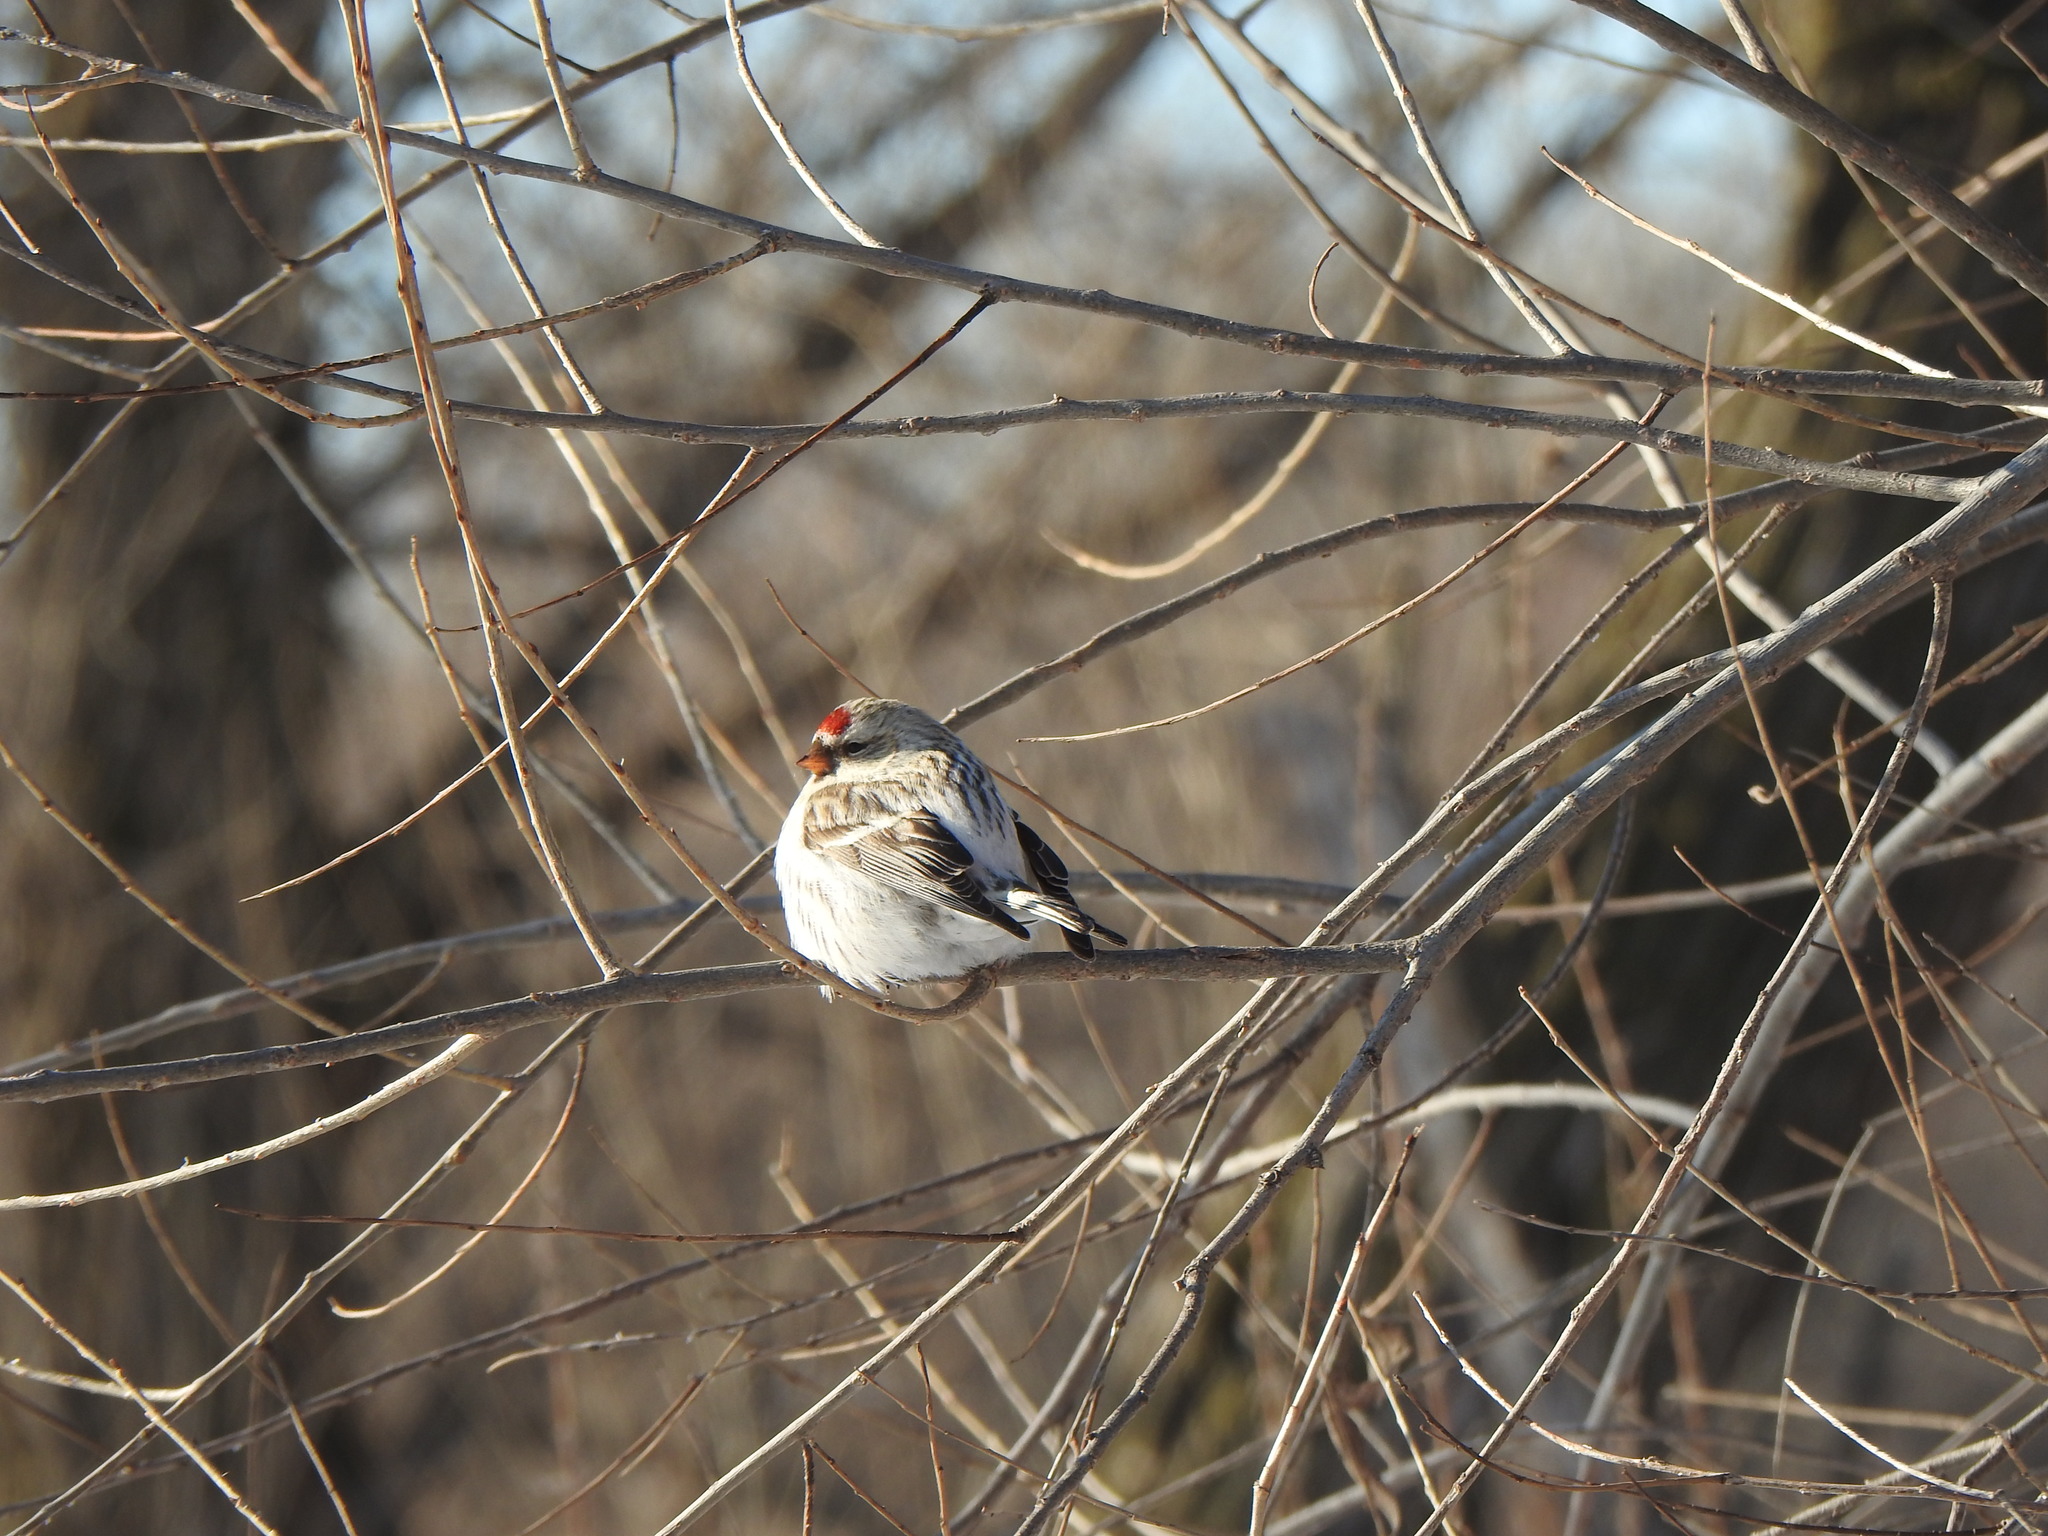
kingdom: Animalia
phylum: Chordata
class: Aves
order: Passeriformes
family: Fringillidae
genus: Acanthis
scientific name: Acanthis hornemanni
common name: Arctic redpoll
